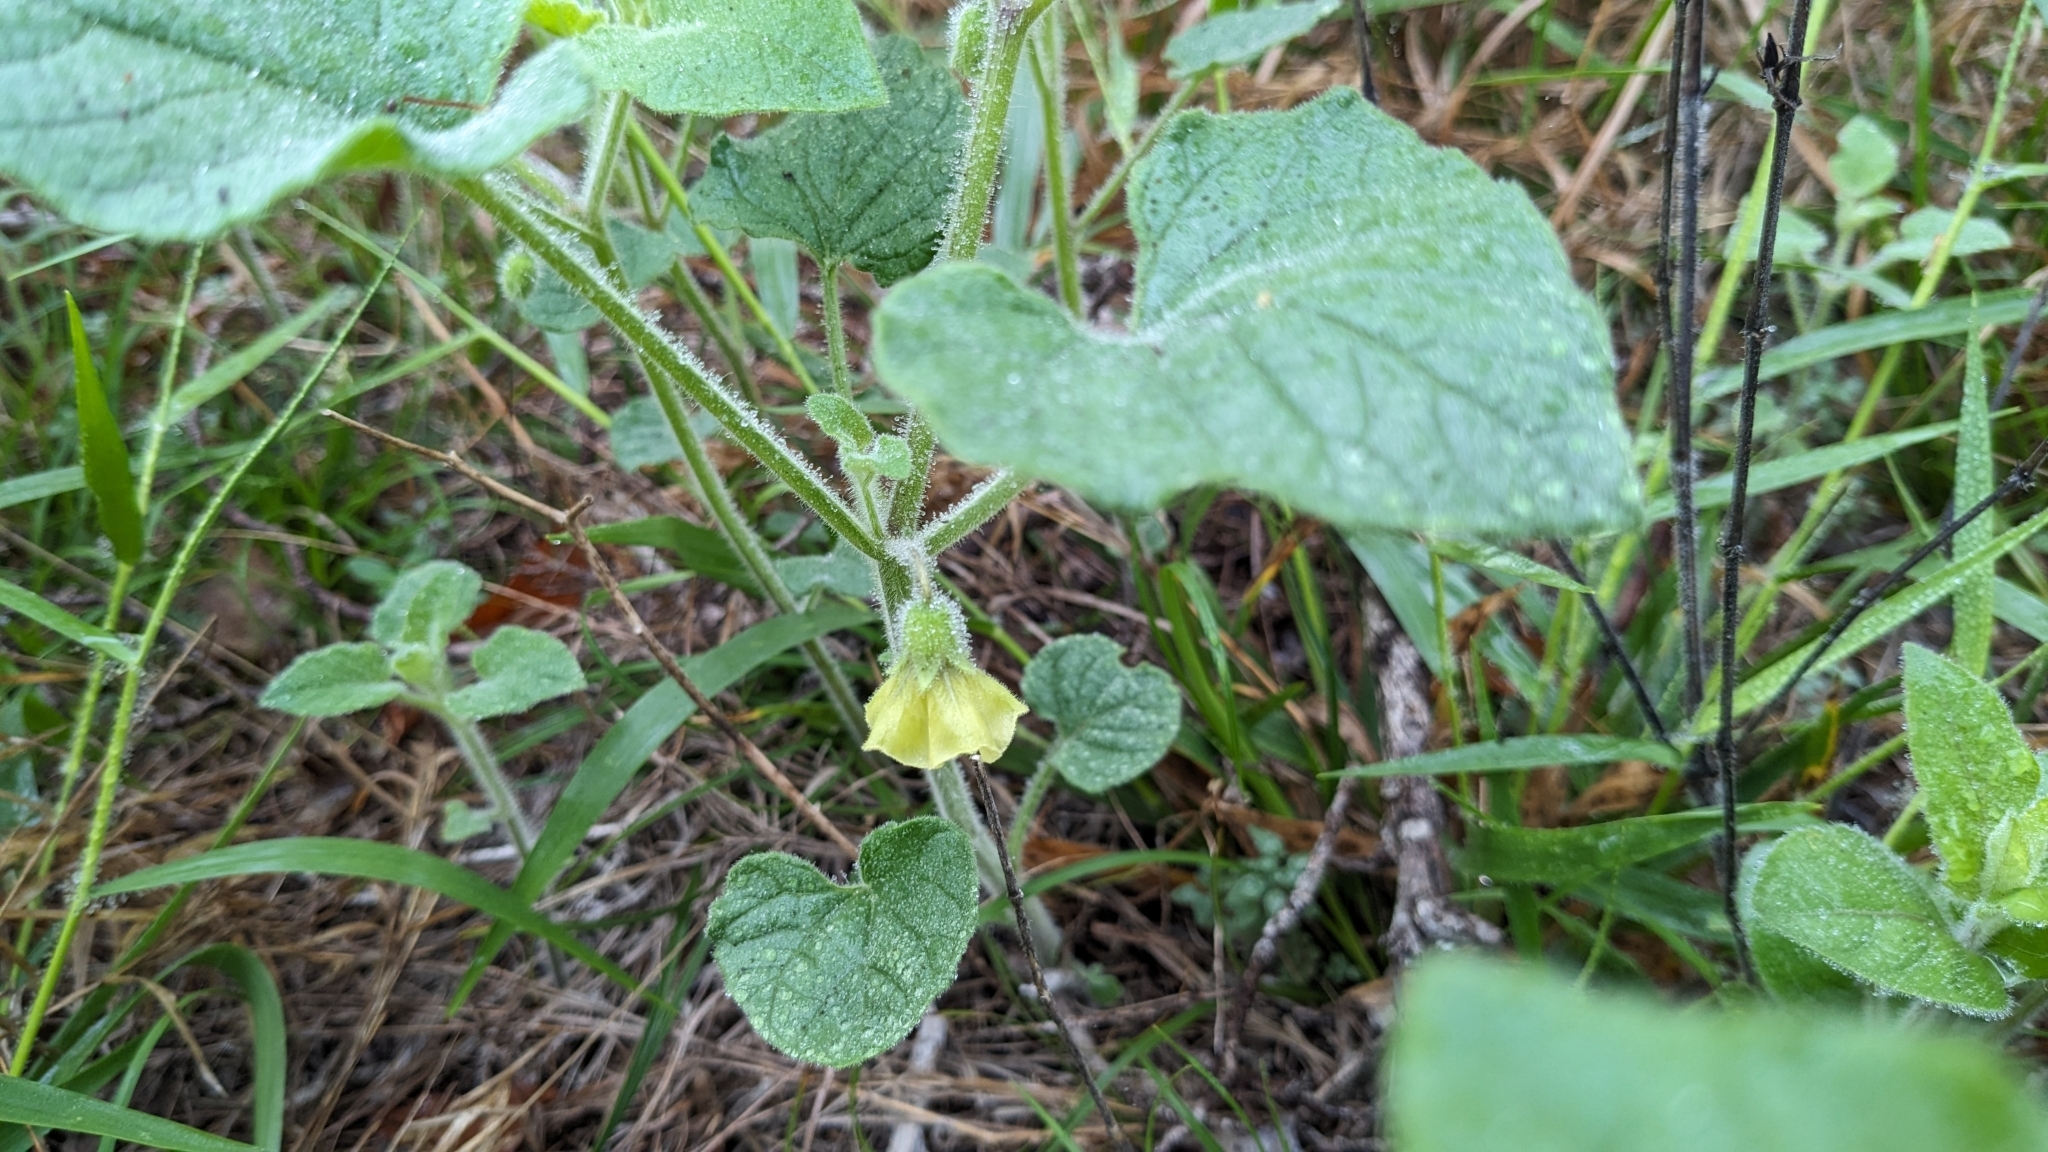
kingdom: Plantae
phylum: Tracheophyta
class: Magnoliopsida
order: Solanales
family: Solanaceae
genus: Physalis
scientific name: Physalis heterophylla
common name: Clammy ground-cherry
